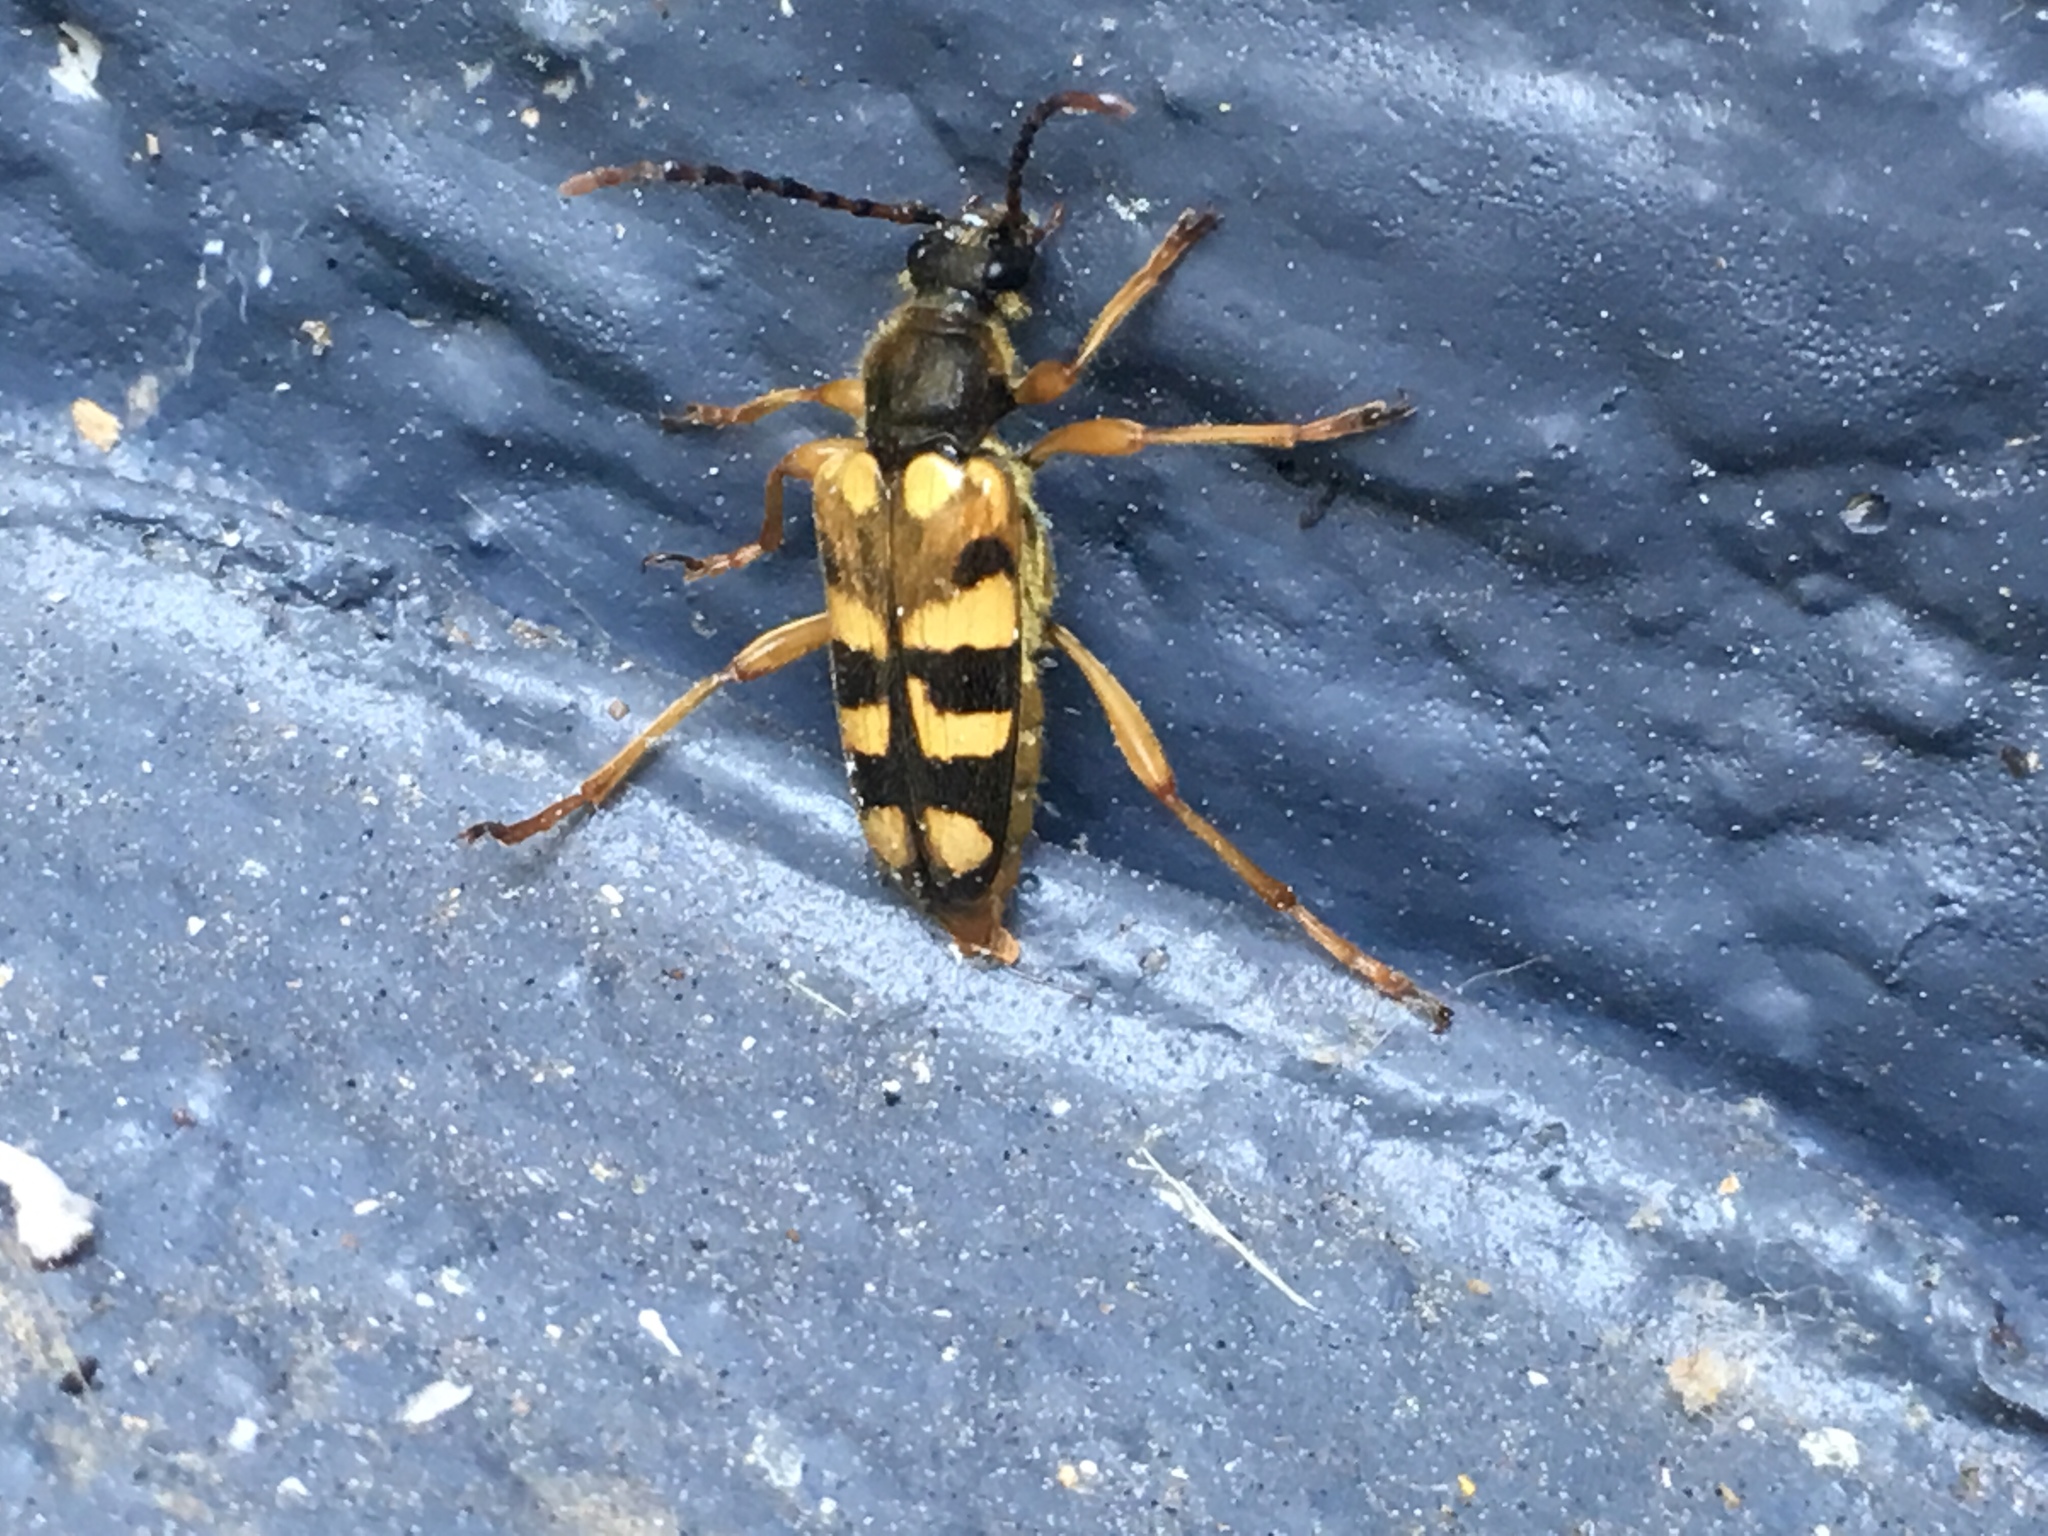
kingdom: Animalia
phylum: Arthropoda
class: Insecta
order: Coleoptera
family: Cerambycidae
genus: Xestoleptura
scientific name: Xestoleptura crassipes
